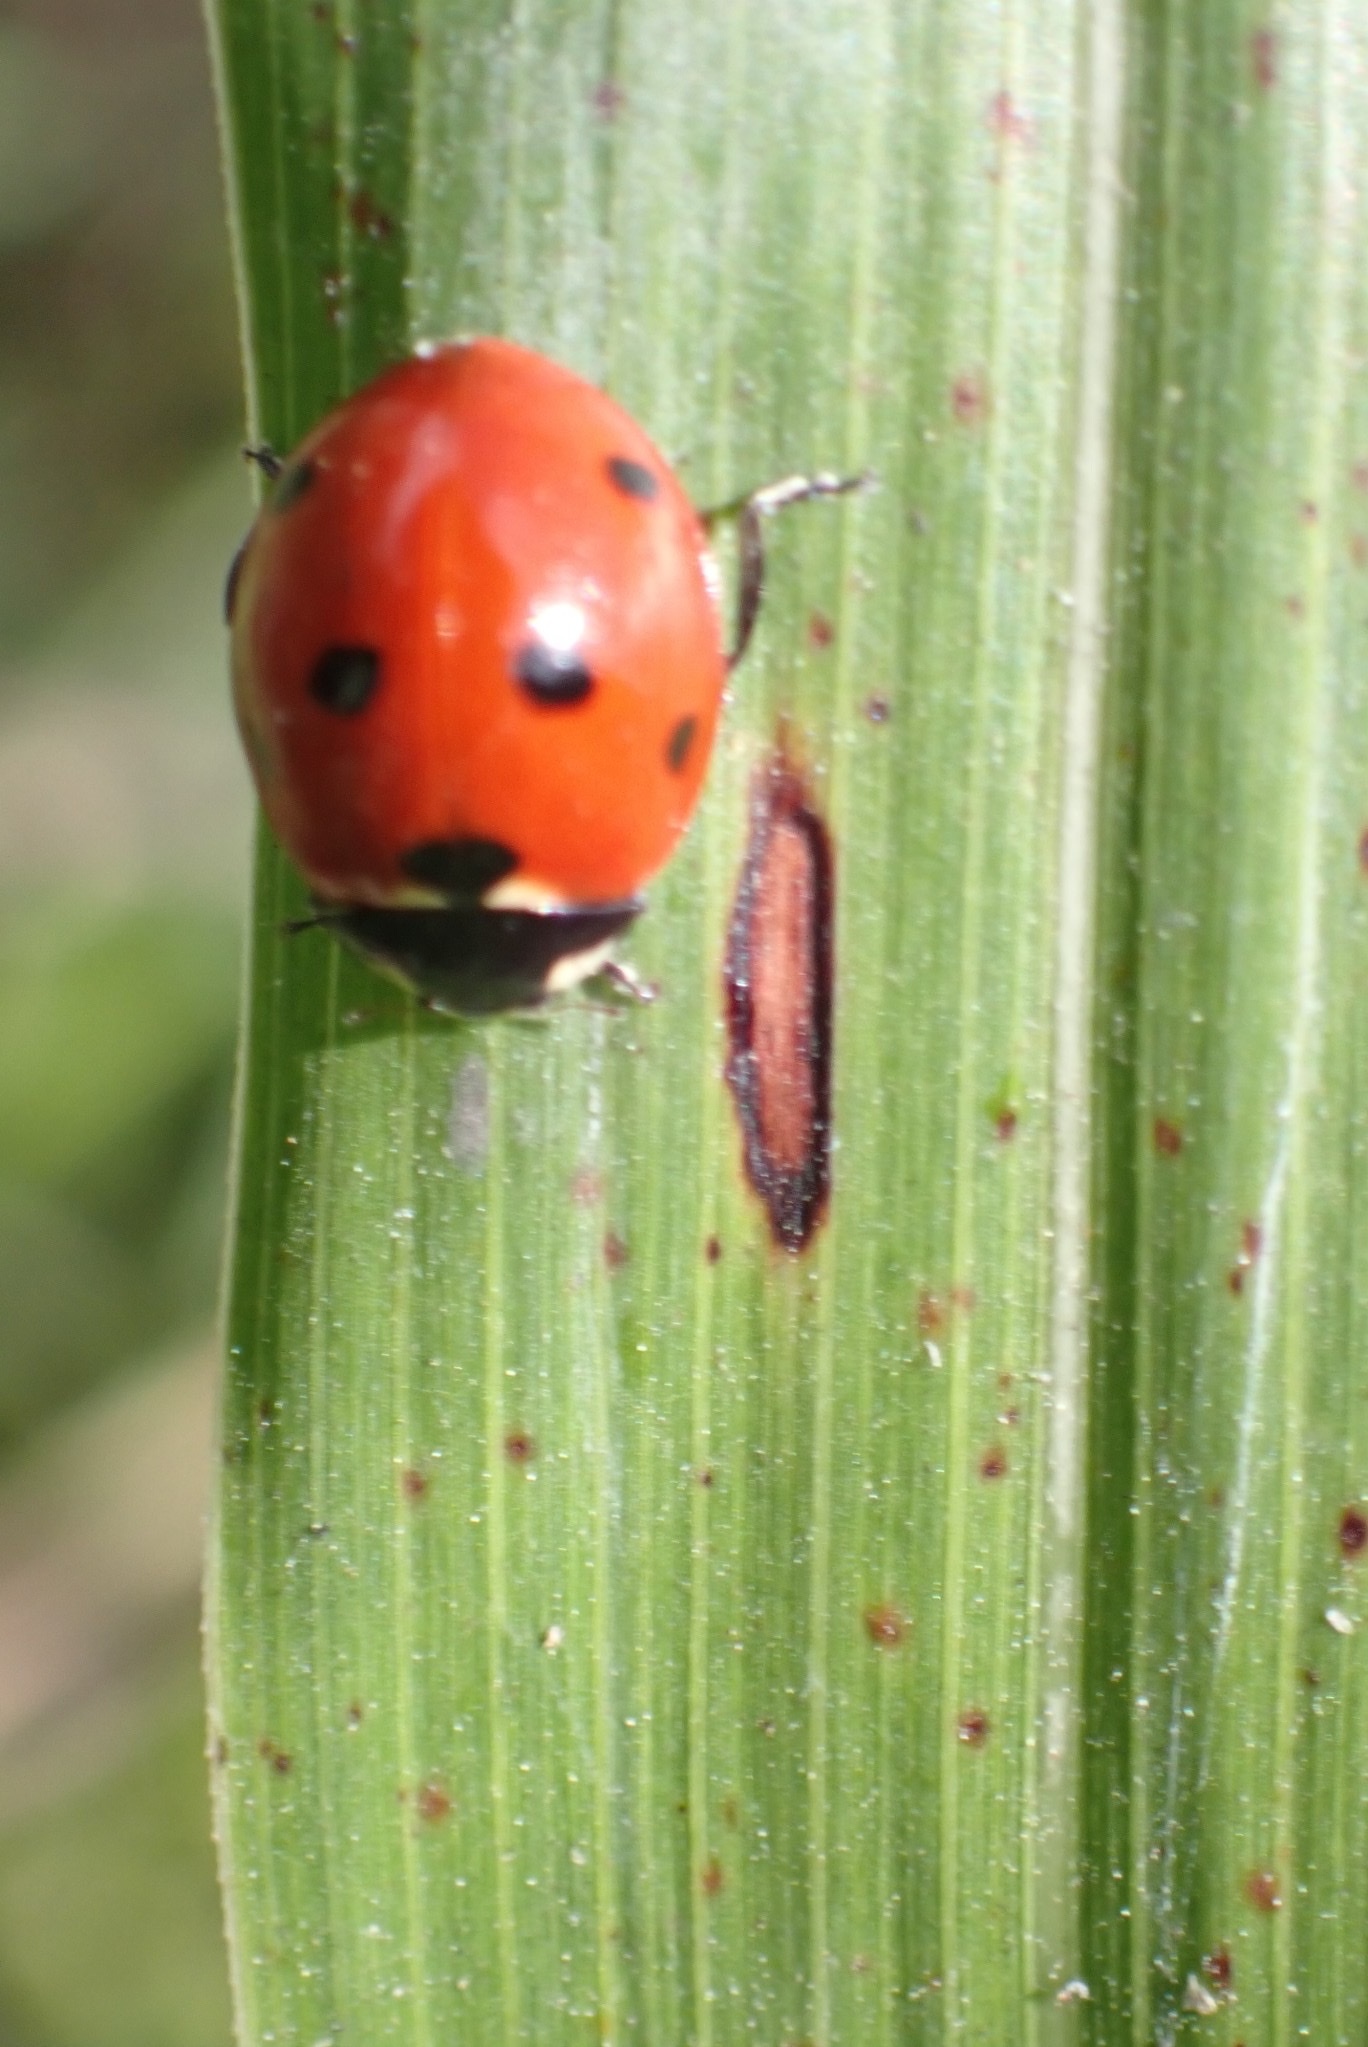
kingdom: Animalia
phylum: Arthropoda
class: Insecta
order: Coleoptera
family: Coccinellidae
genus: Coccinella
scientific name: Coccinella septempunctata
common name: Sevenspotted lady beetle
